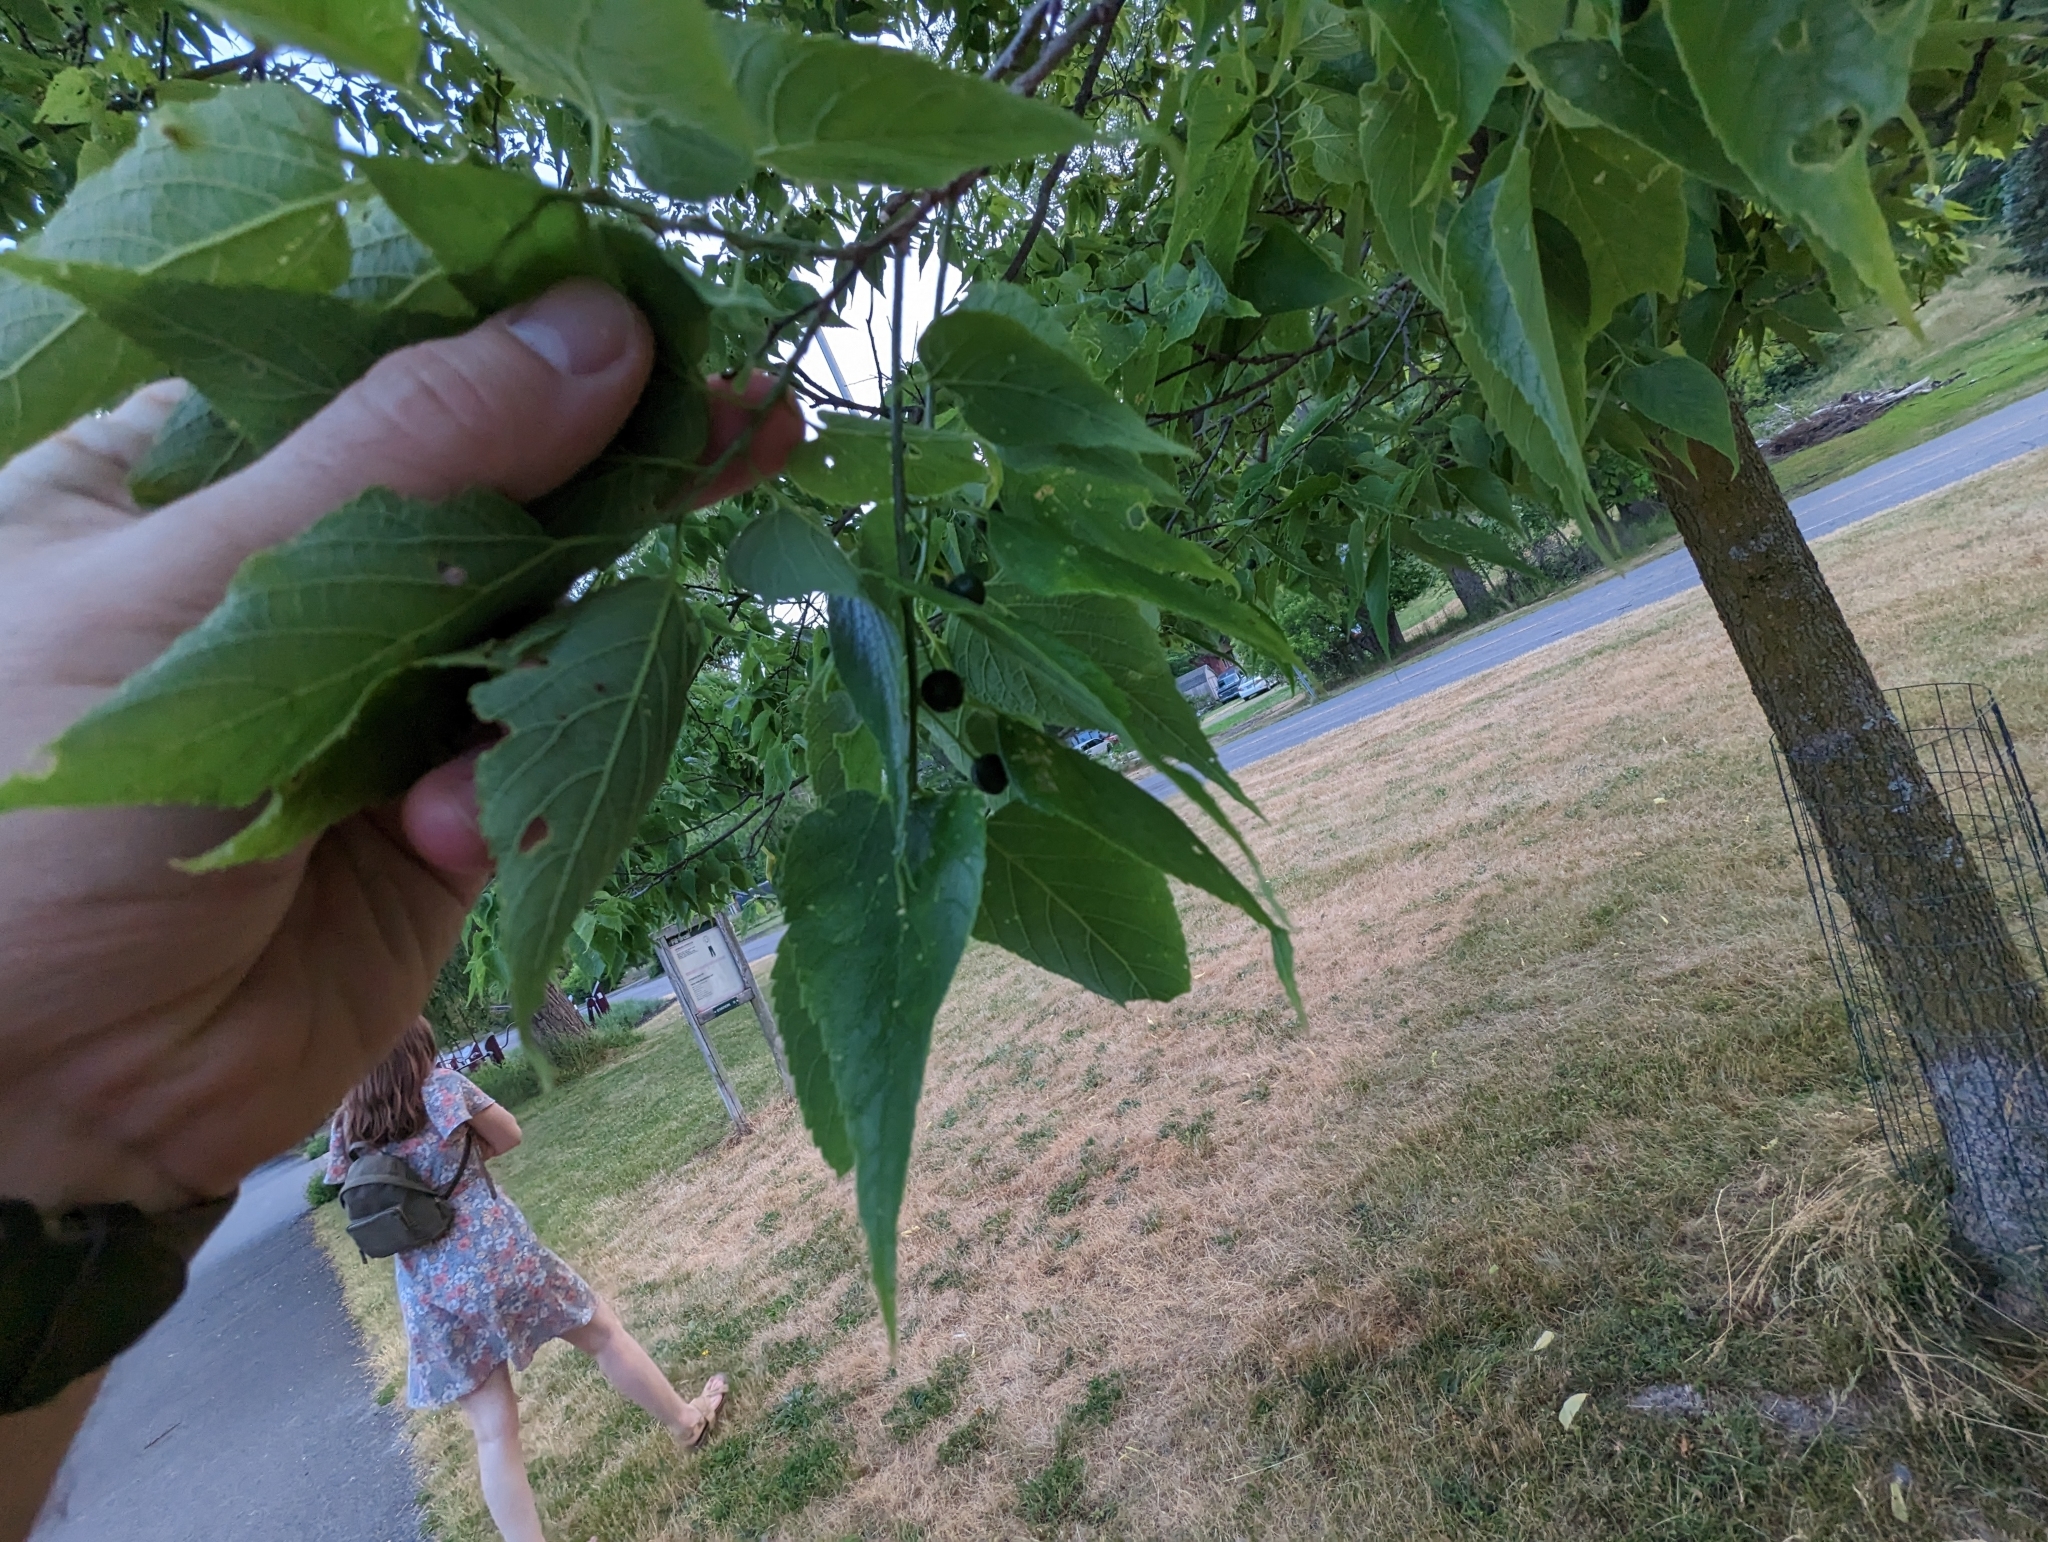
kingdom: Animalia
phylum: Arthropoda
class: Insecta
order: Hemiptera
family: Aphalaridae
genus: Pachypsylla
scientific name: Pachypsylla celtidismamma
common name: Hackberry nipplegall psyllid
